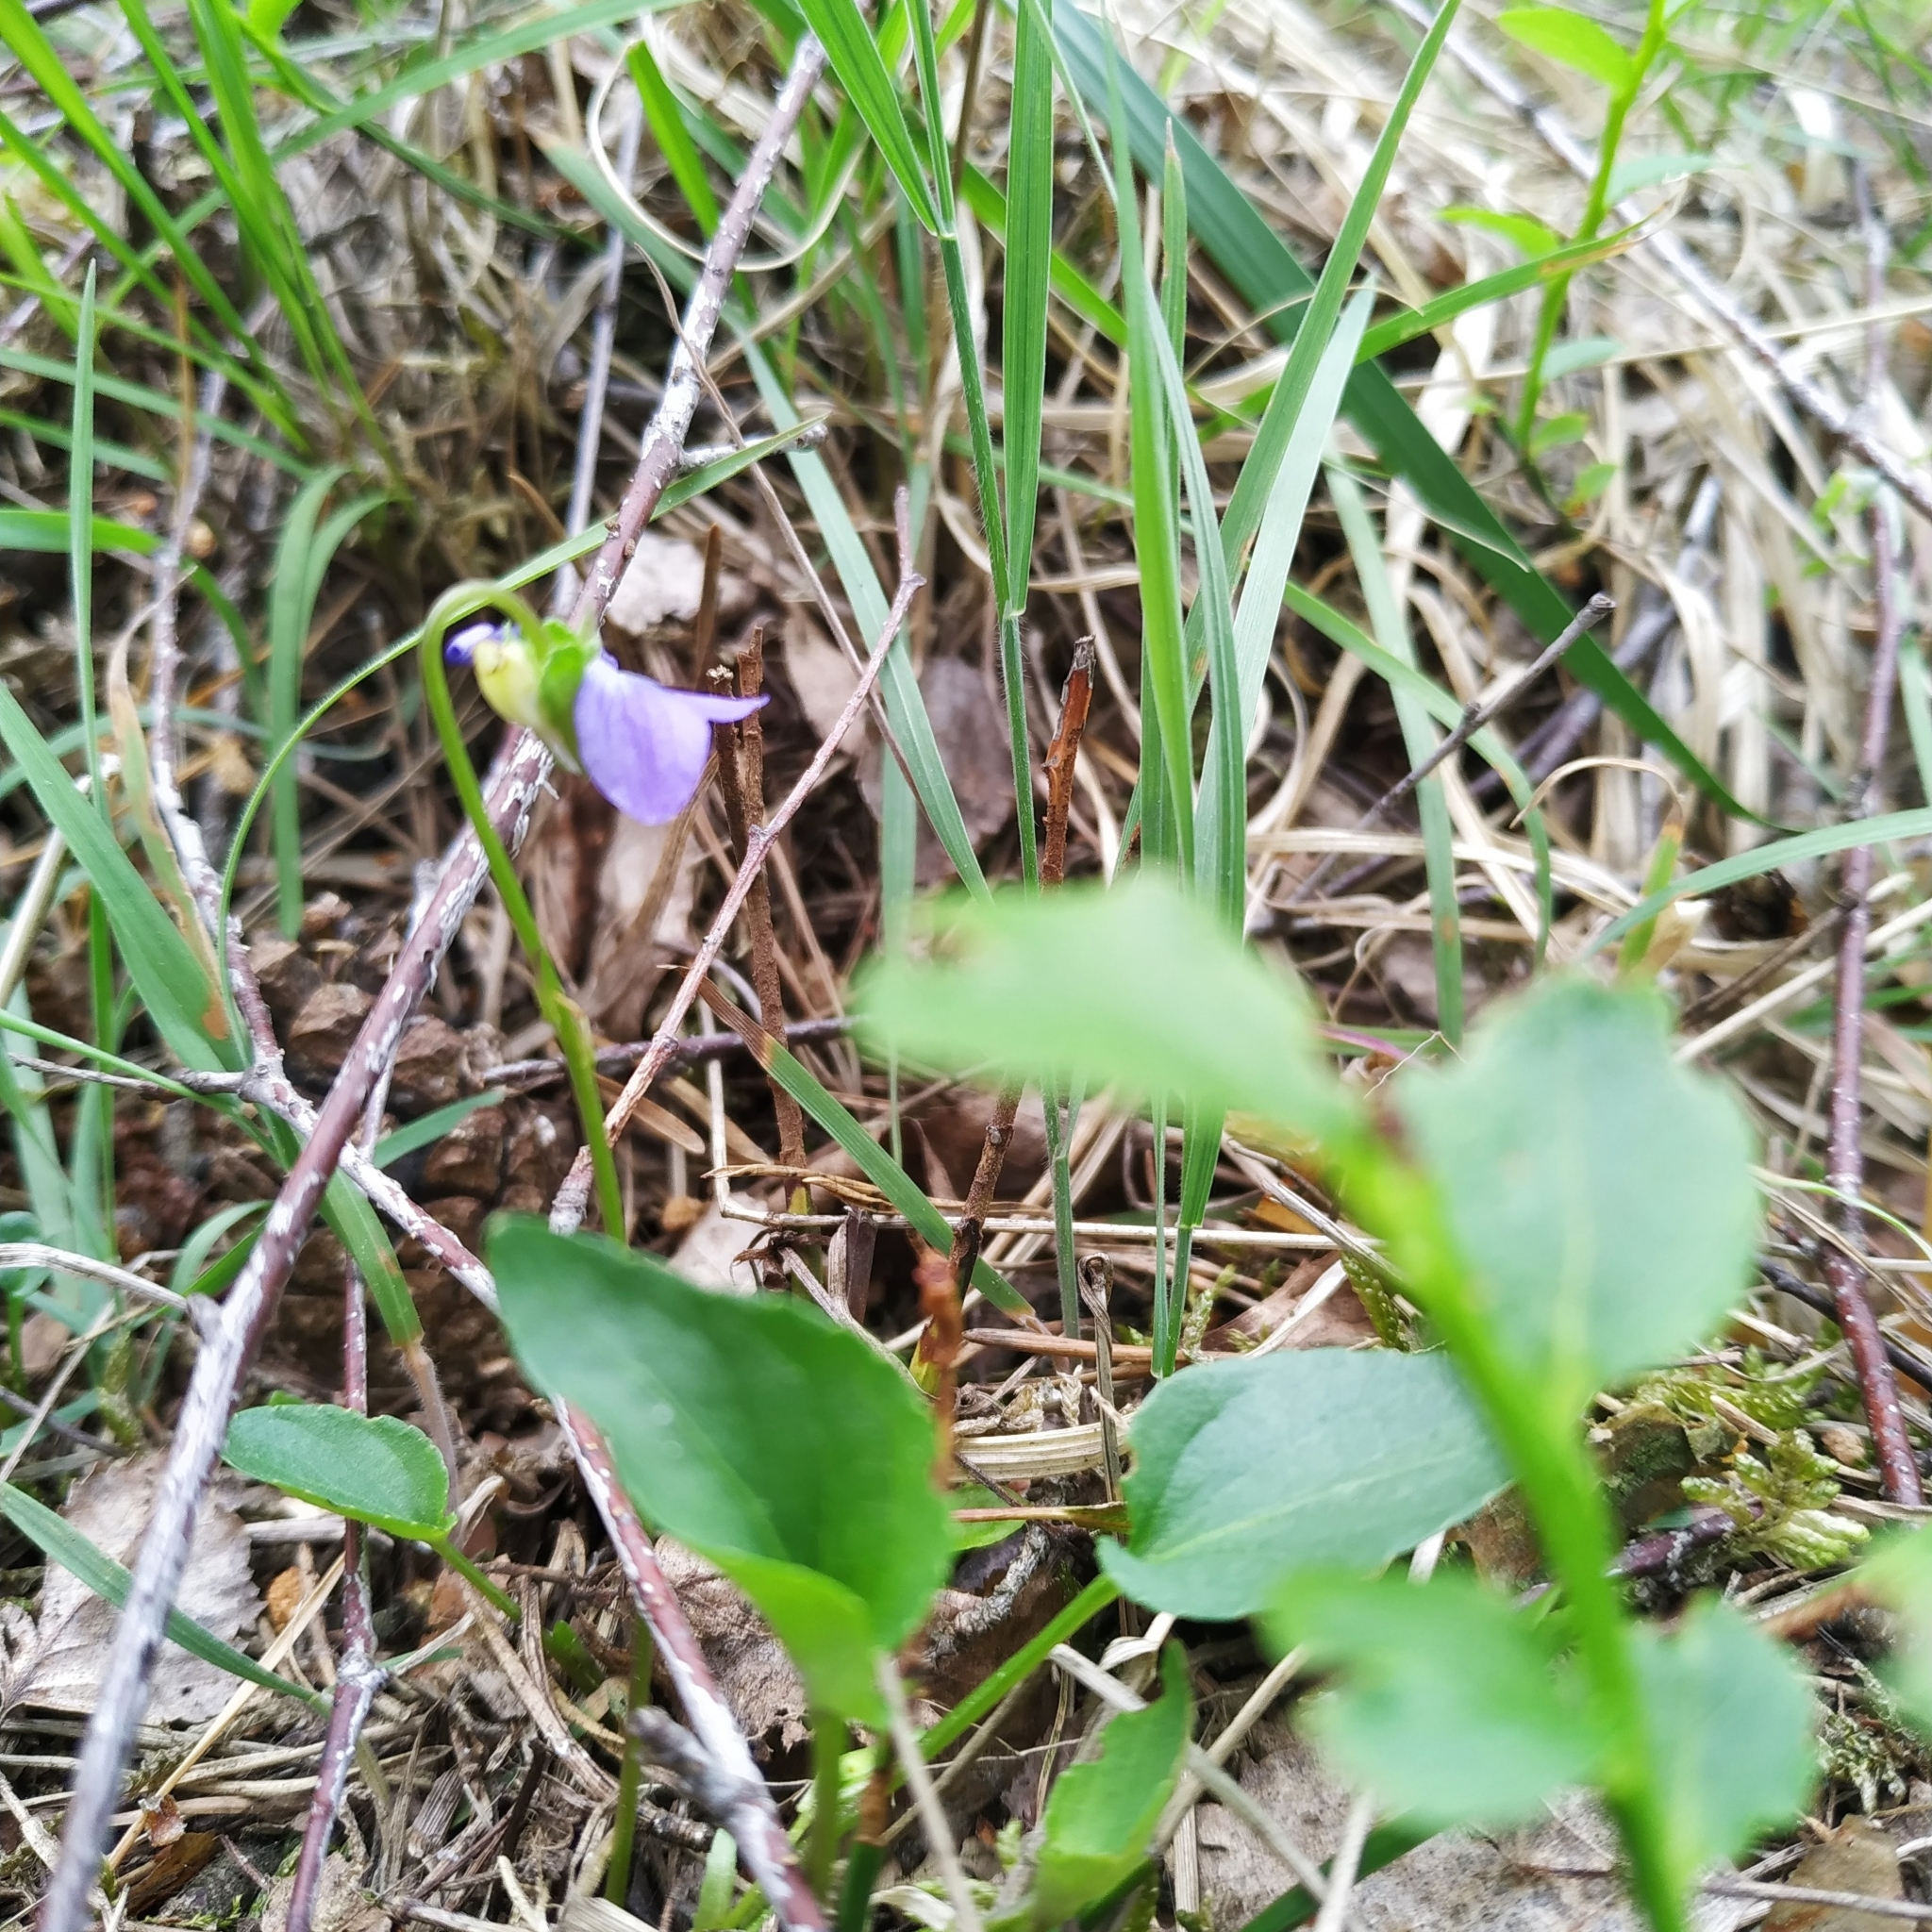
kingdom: Plantae
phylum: Tracheophyta
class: Magnoliopsida
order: Malpighiales
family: Violaceae
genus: Viola
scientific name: Viola riviniana
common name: Common dog-violet
